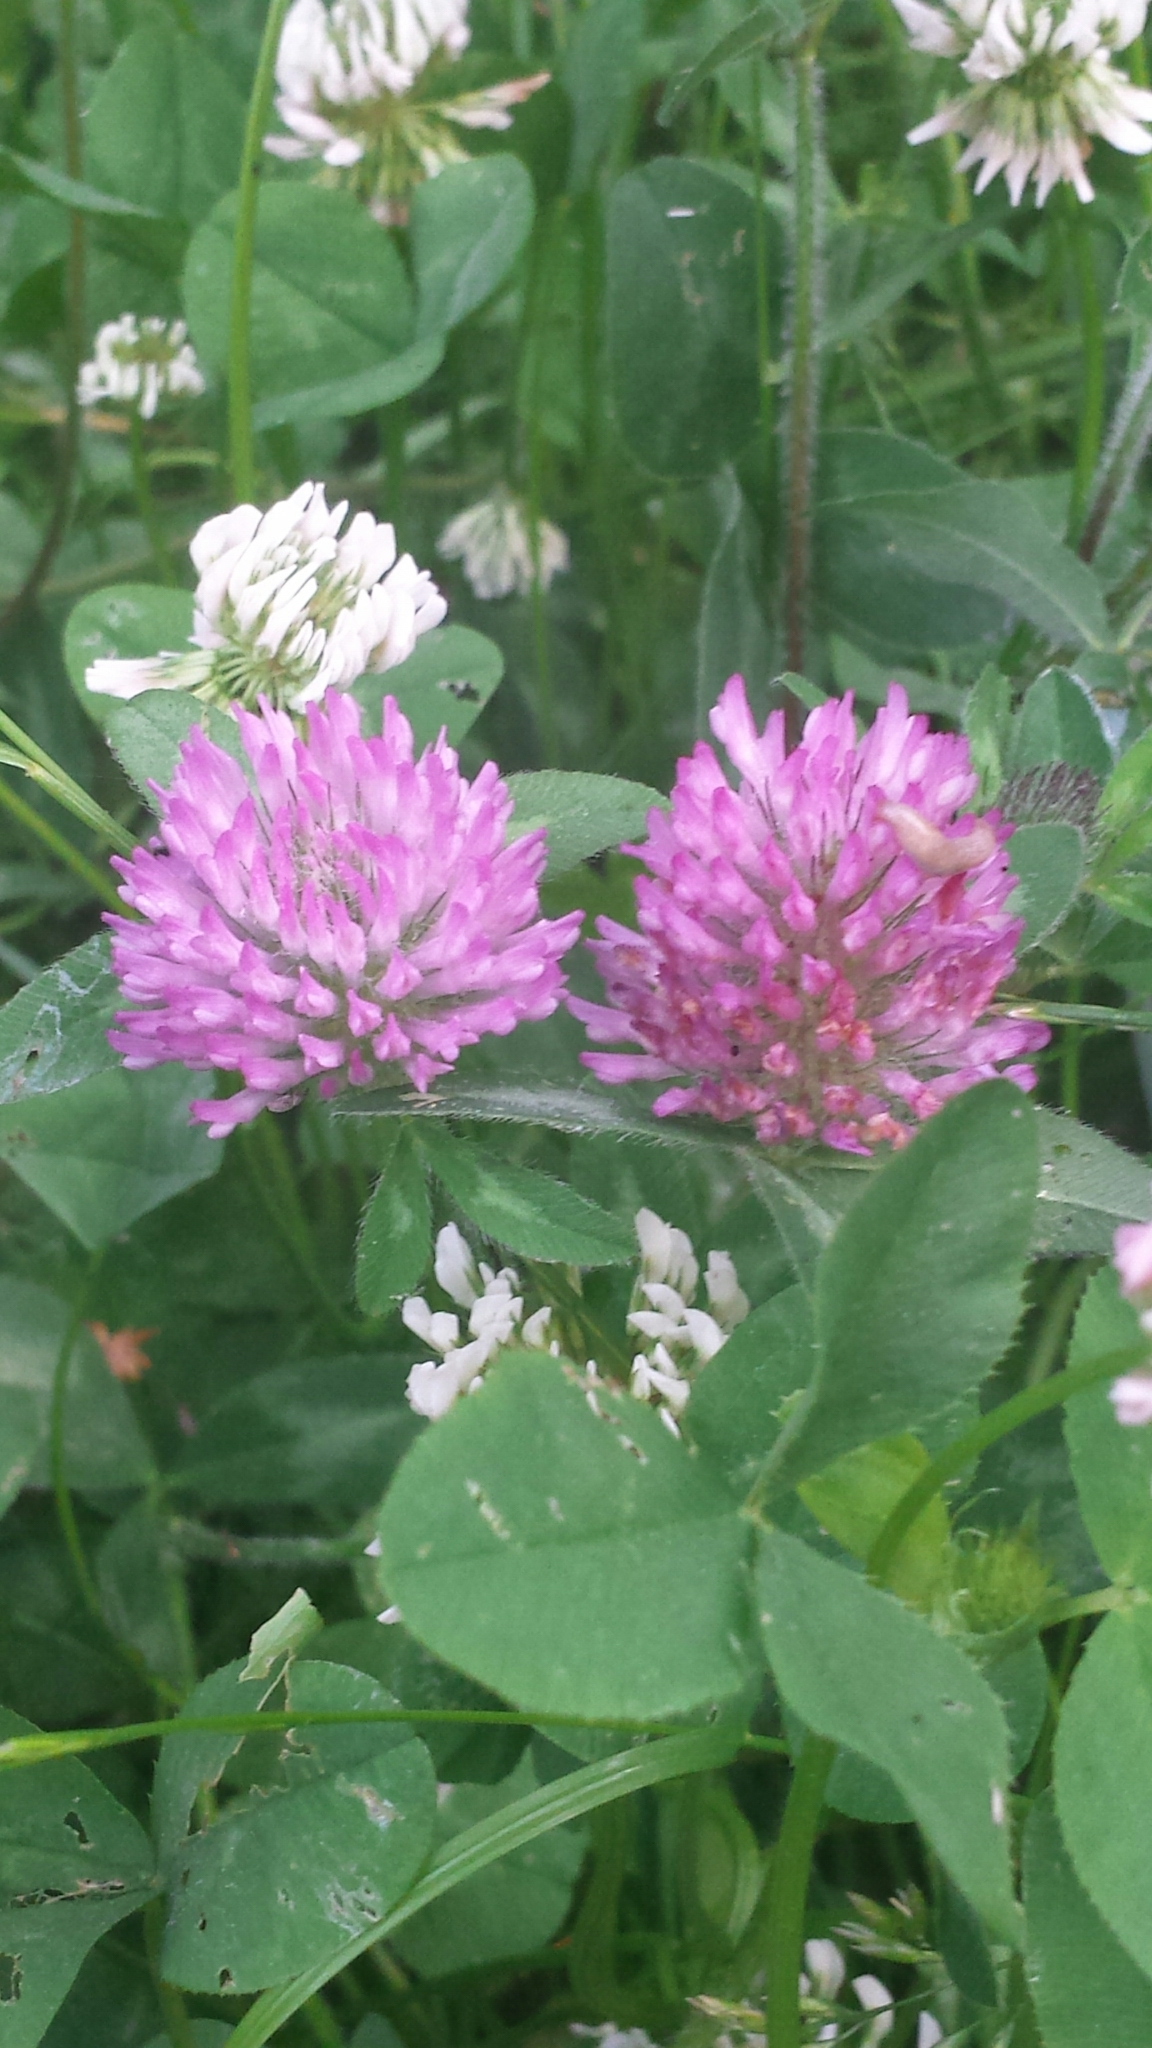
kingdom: Plantae
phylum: Tracheophyta
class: Magnoliopsida
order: Fabales
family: Fabaceae
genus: Trifolium
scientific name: Trifolium pratense
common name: Red clover
